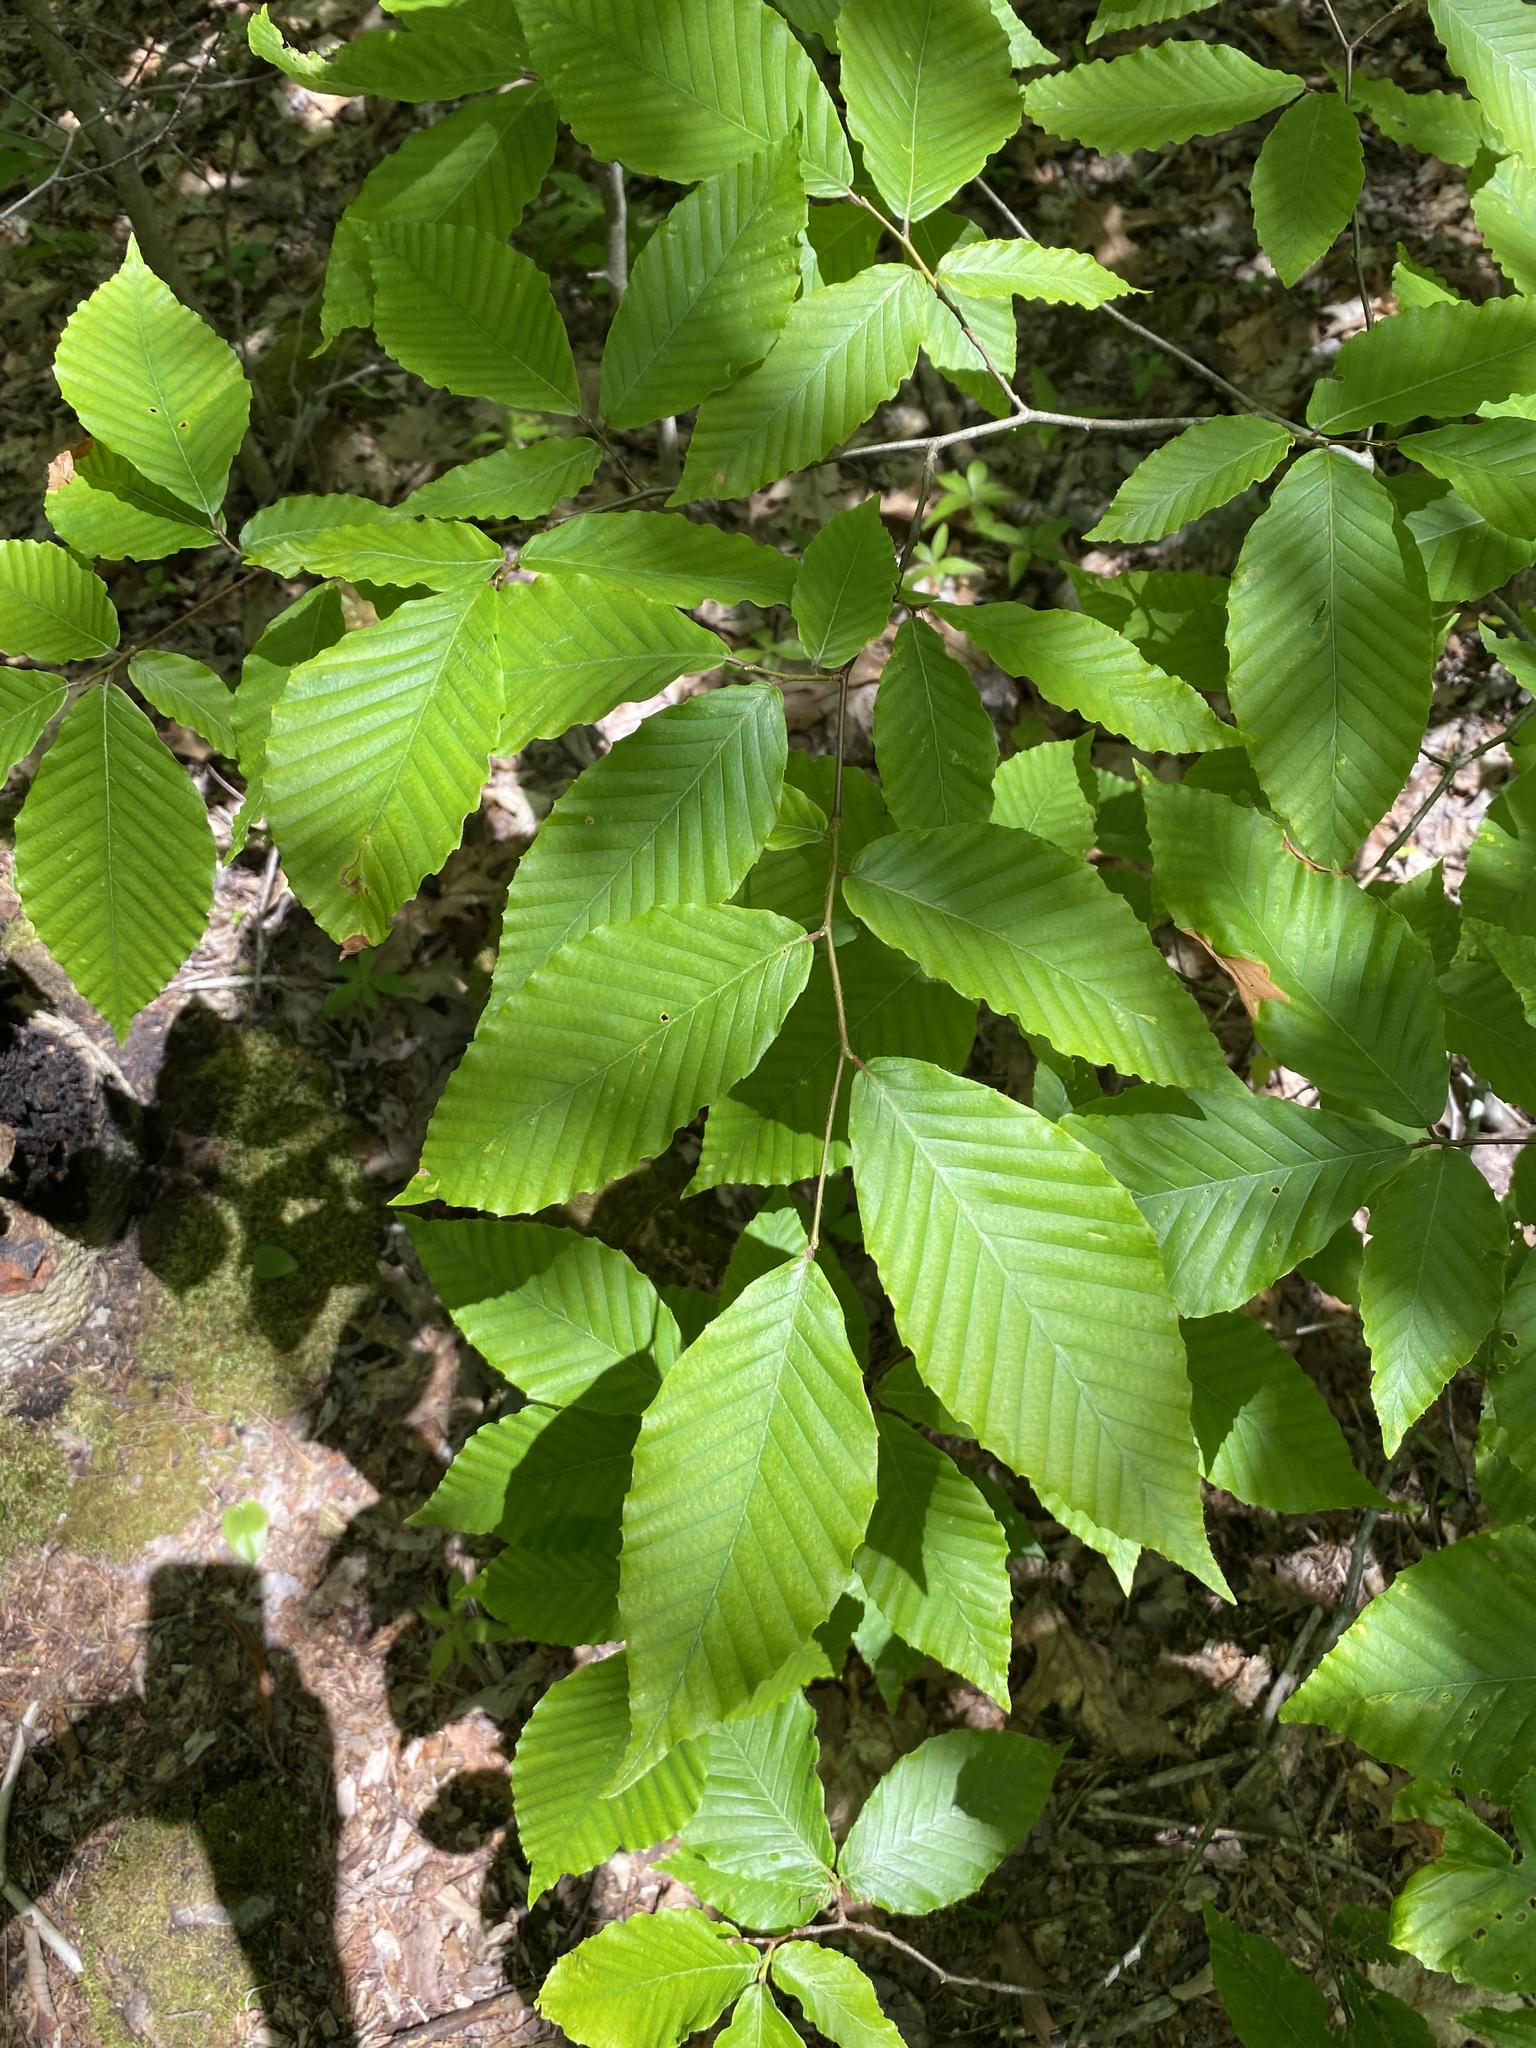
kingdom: Plantae
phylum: Tracheophyta
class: Magnoliopsida
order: Fagales
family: Fagaceae
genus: Fagus
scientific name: Fagus grandifolia
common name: American beech
